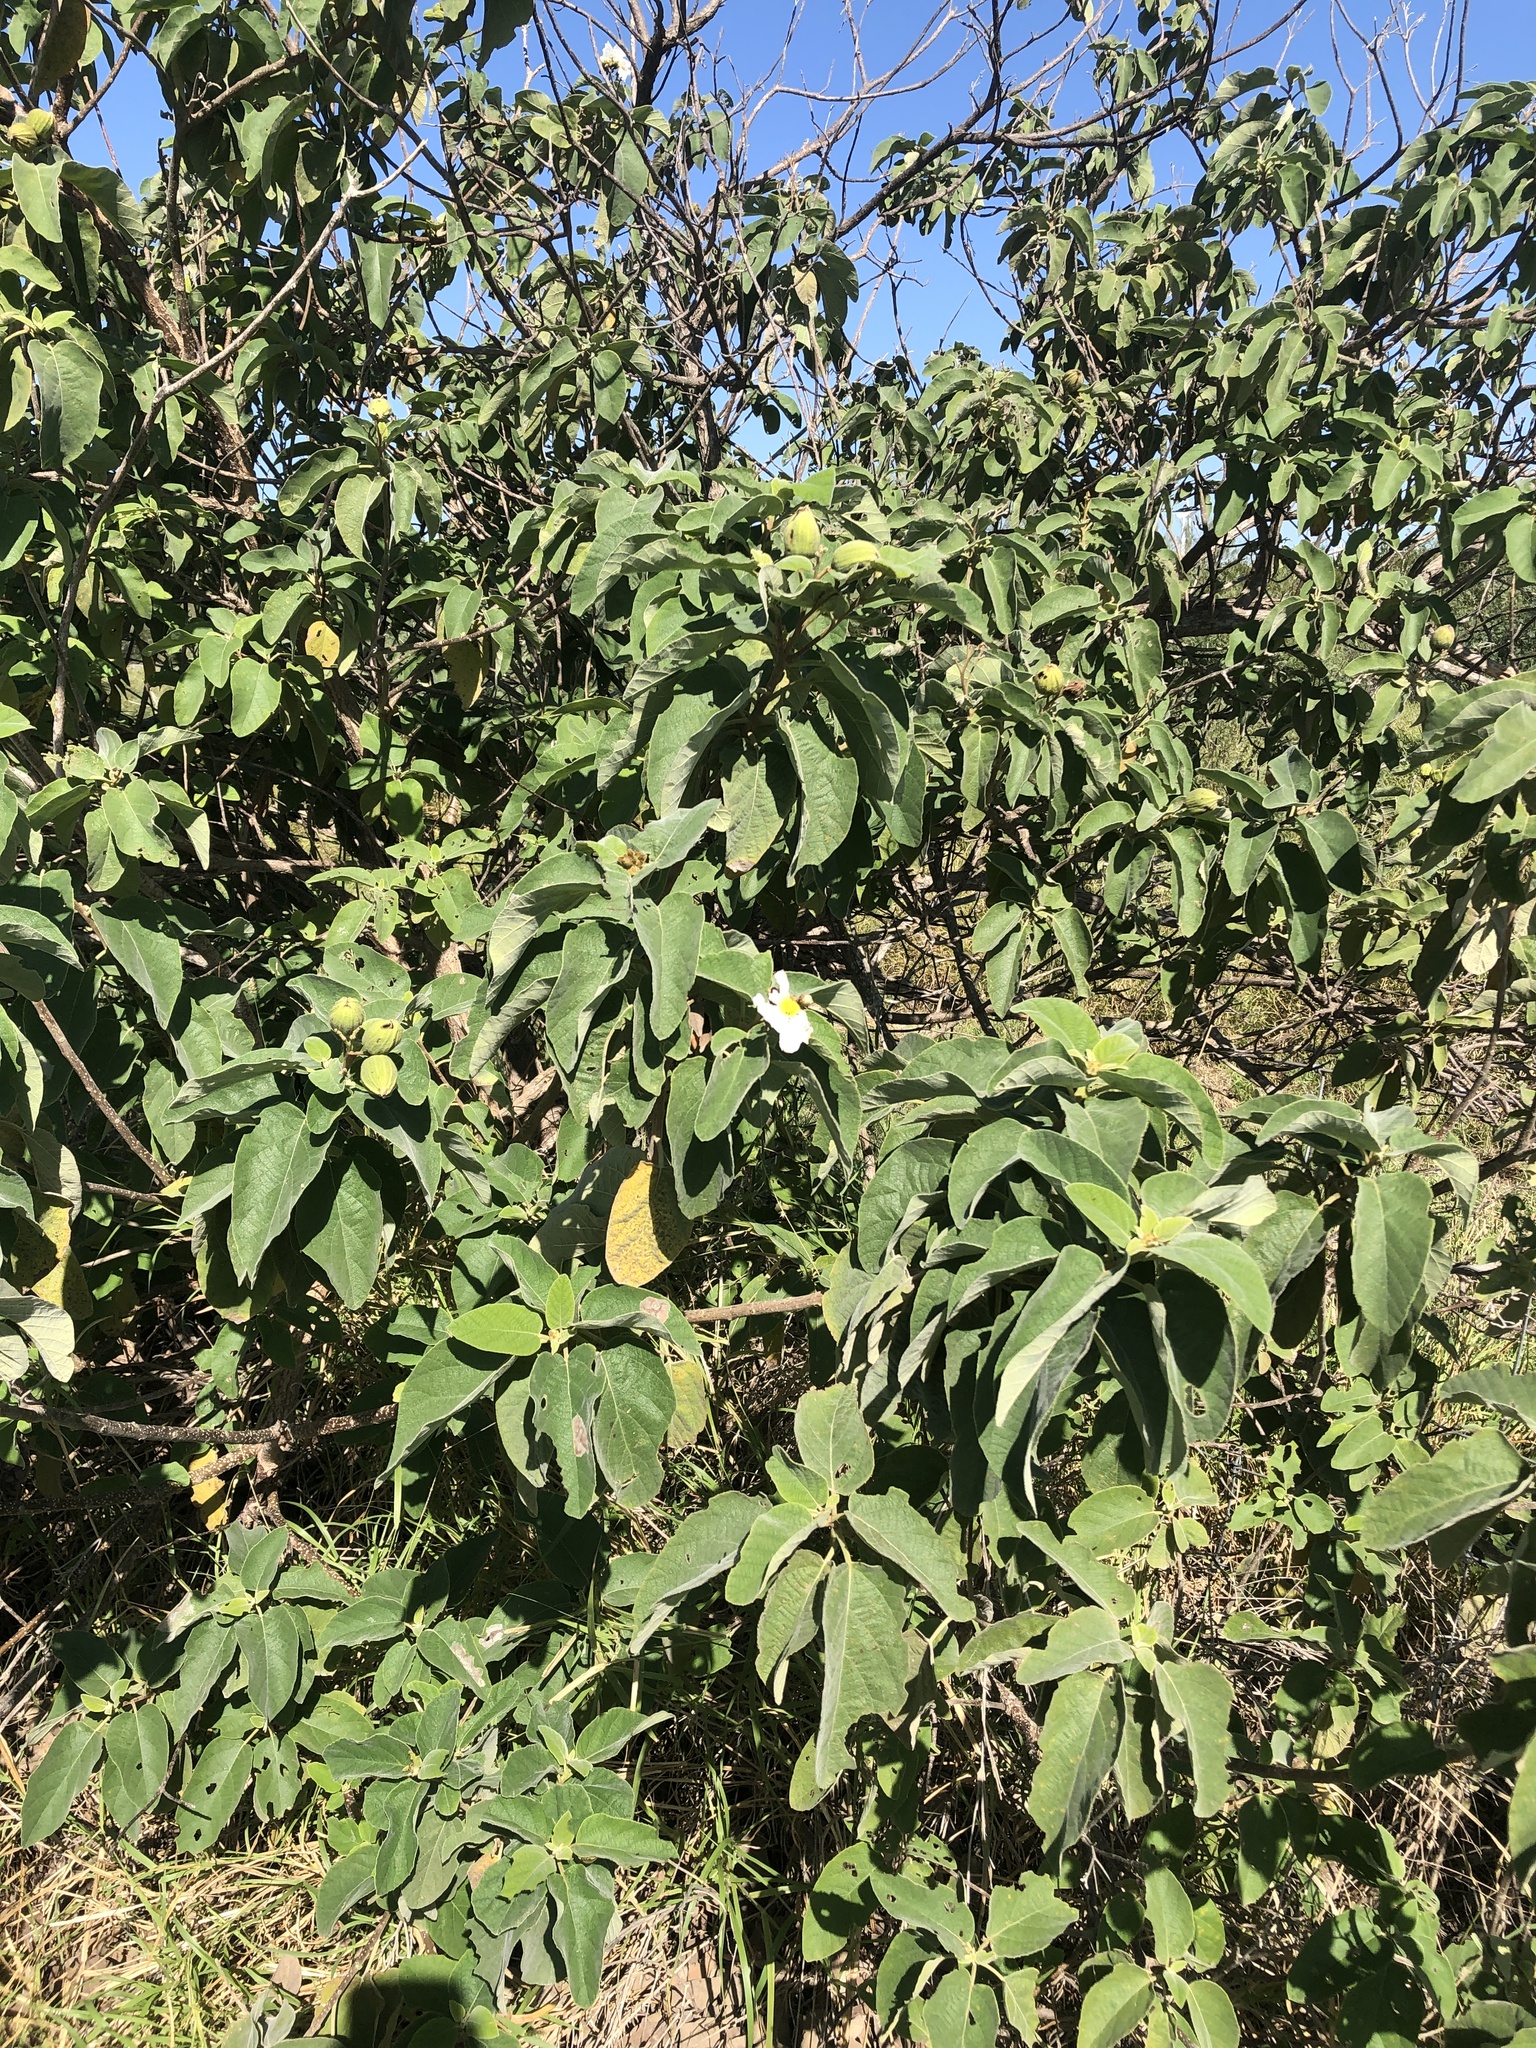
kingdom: Plantae
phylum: Tracheophyta
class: Magnoliopsida
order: Boraginales
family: Cordiaceae
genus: Cordia
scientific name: Cordia boissieri
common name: Mexican-olive
